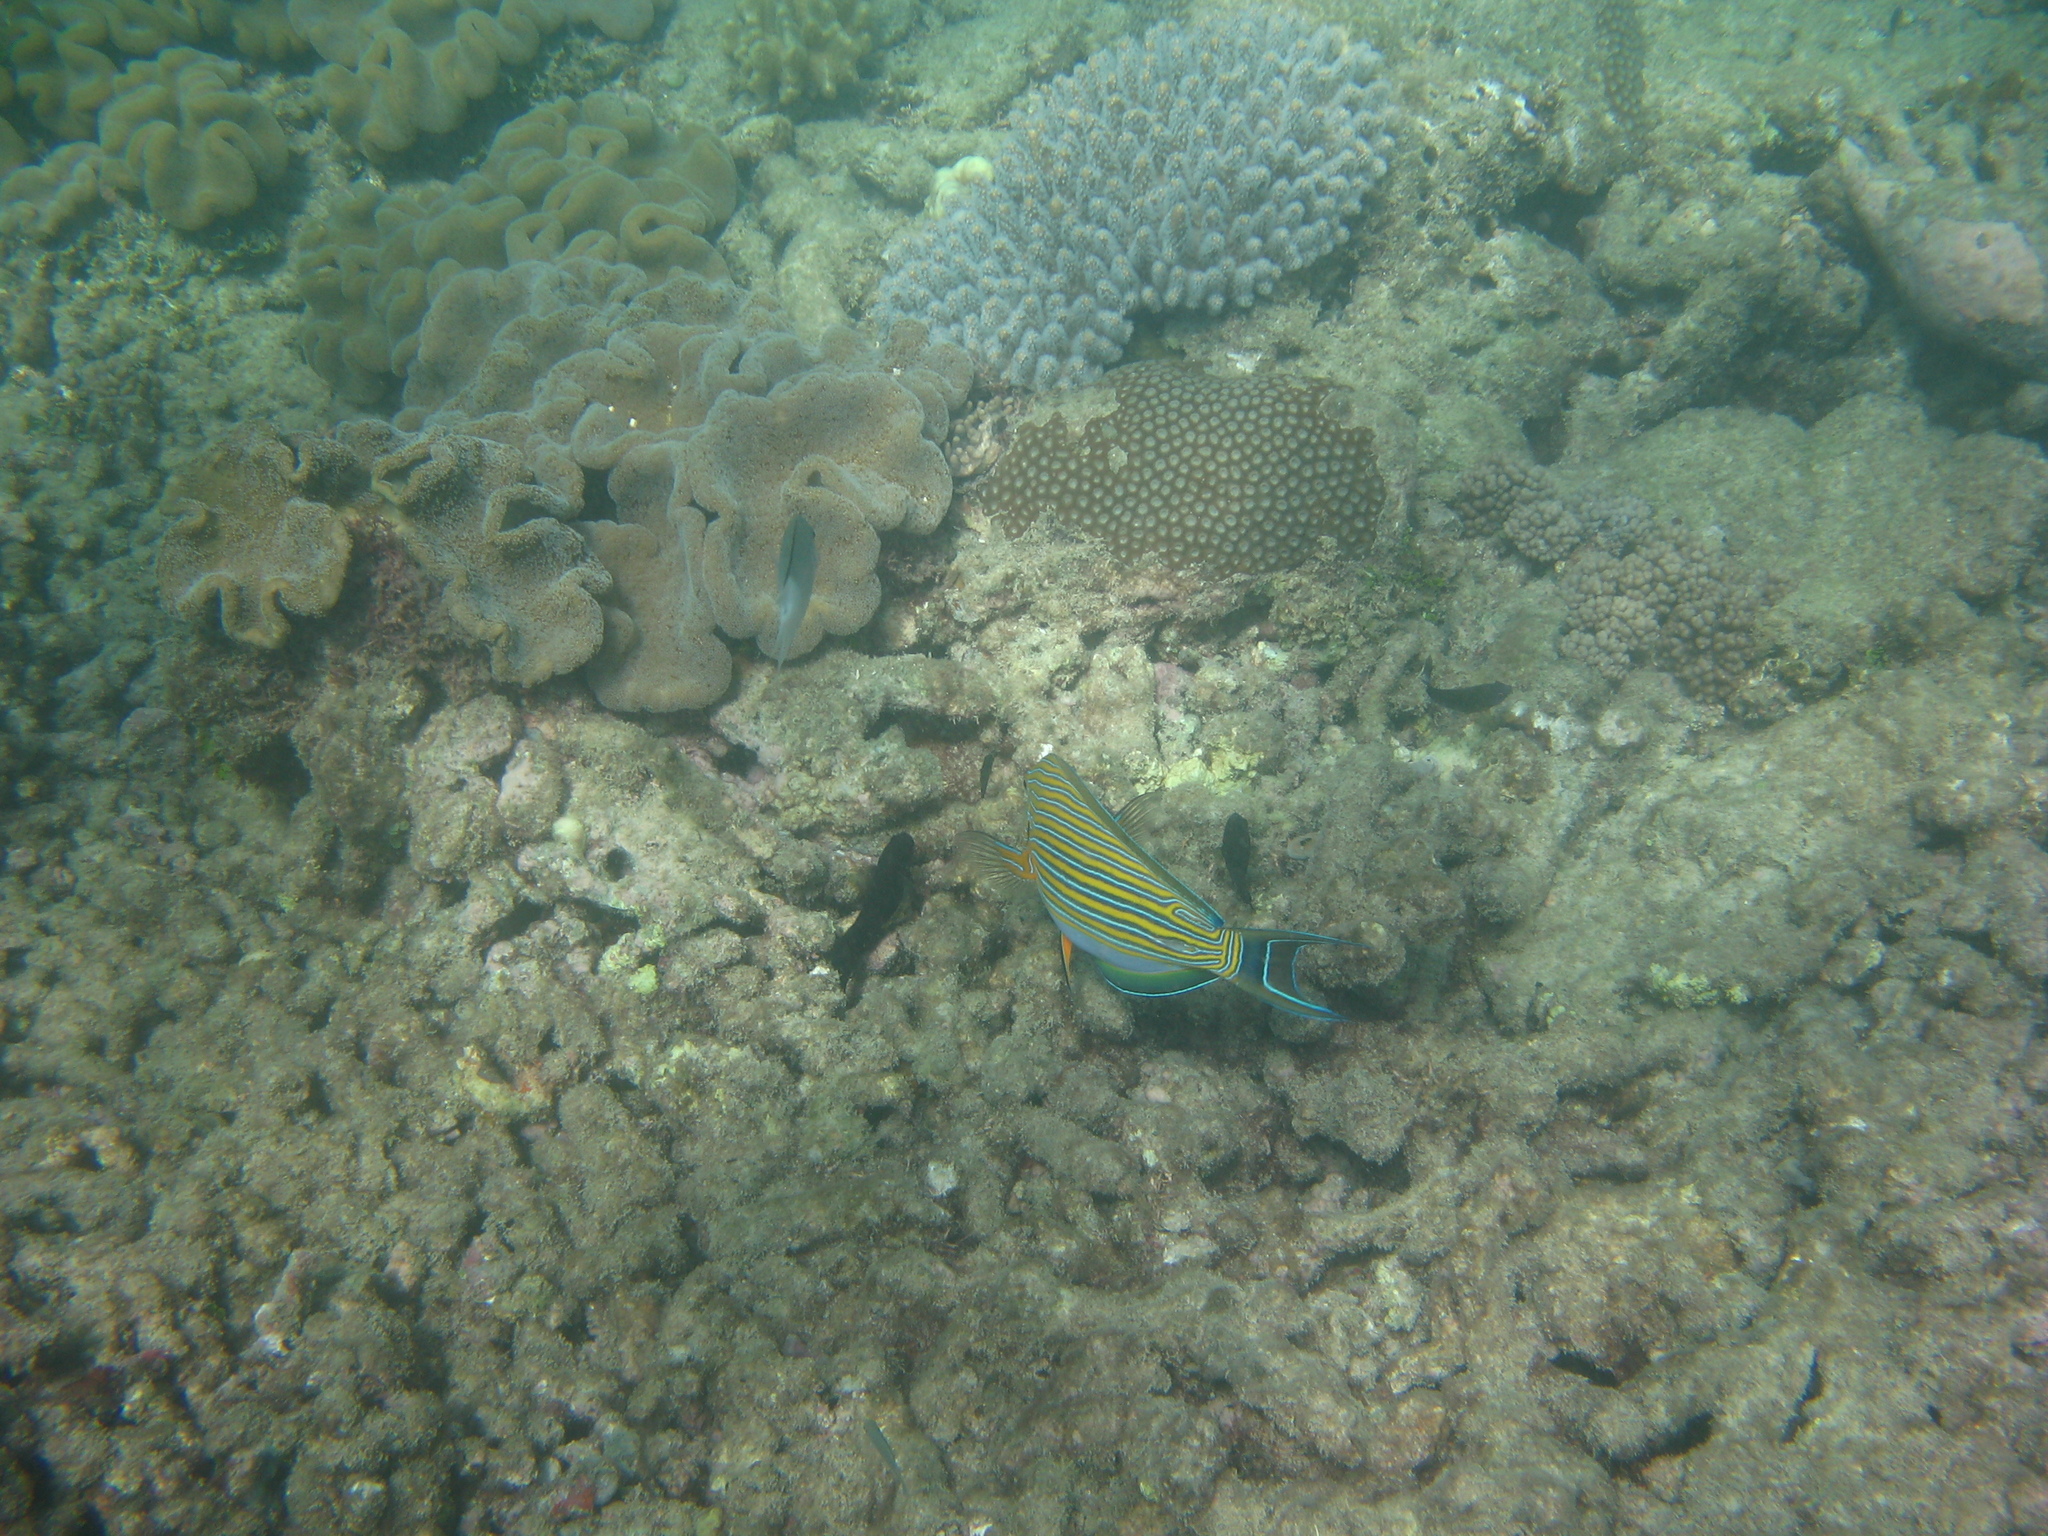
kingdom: Animalia
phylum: Chordata
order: Perciformes
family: Acanthuridae
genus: Acanthurus
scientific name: Acanthurus lineatus
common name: Striped surgeonfish
